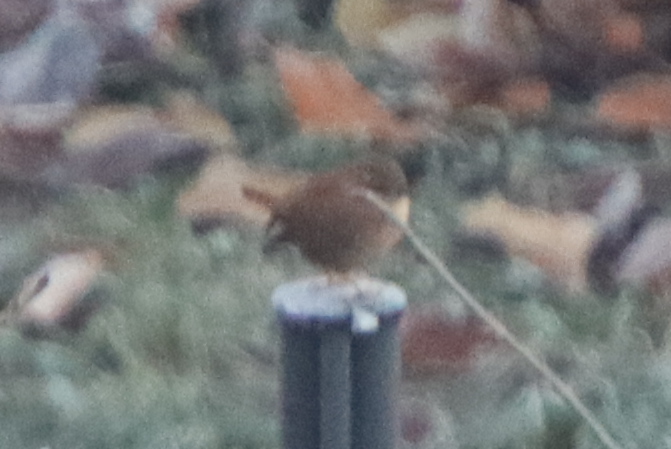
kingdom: Animalia
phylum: Chordata
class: Aves
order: Passeriformes
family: Troglodytidae
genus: Troglodytes
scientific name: Troglodytes troglodytes
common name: Eurasian wren
